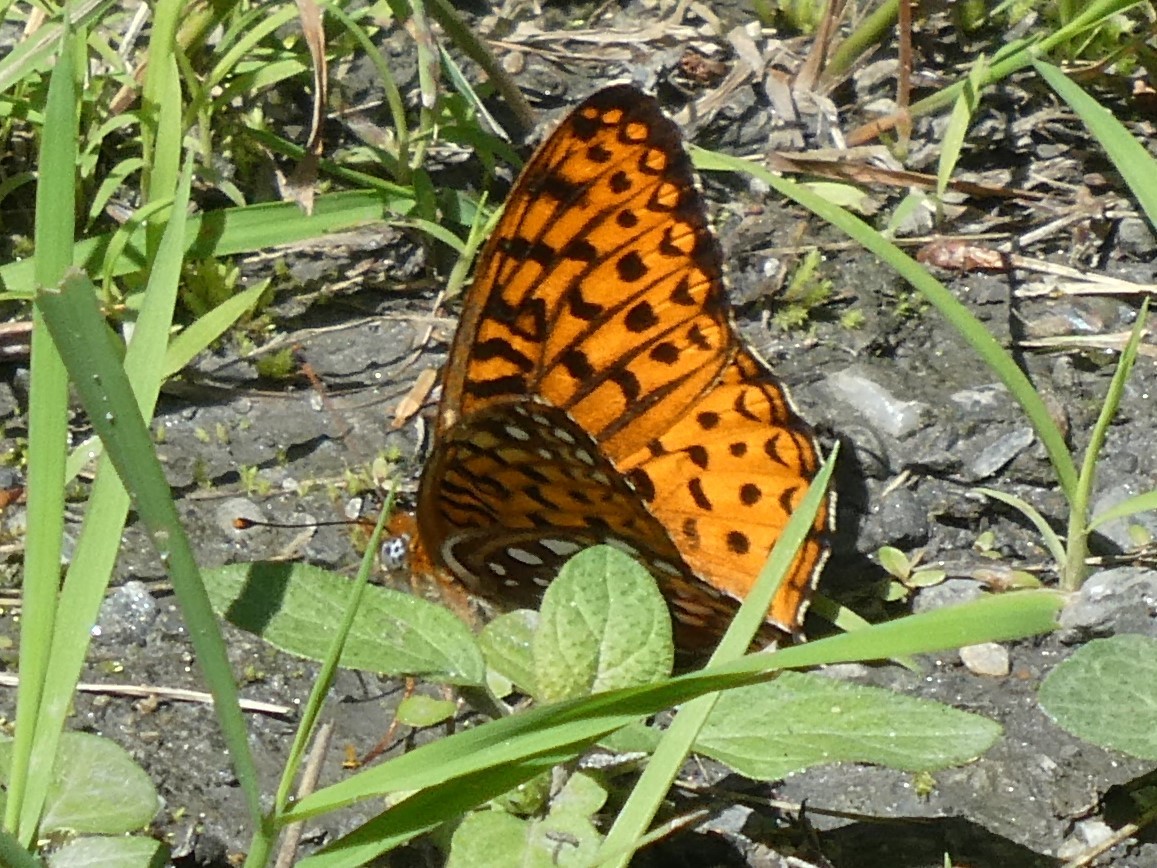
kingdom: Animalia
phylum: Arthropoda
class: Insecta
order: Lepidoptera
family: Nymphalidae
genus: Speyeria
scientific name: Speyeria atlantis
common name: Atlantis fritillary
